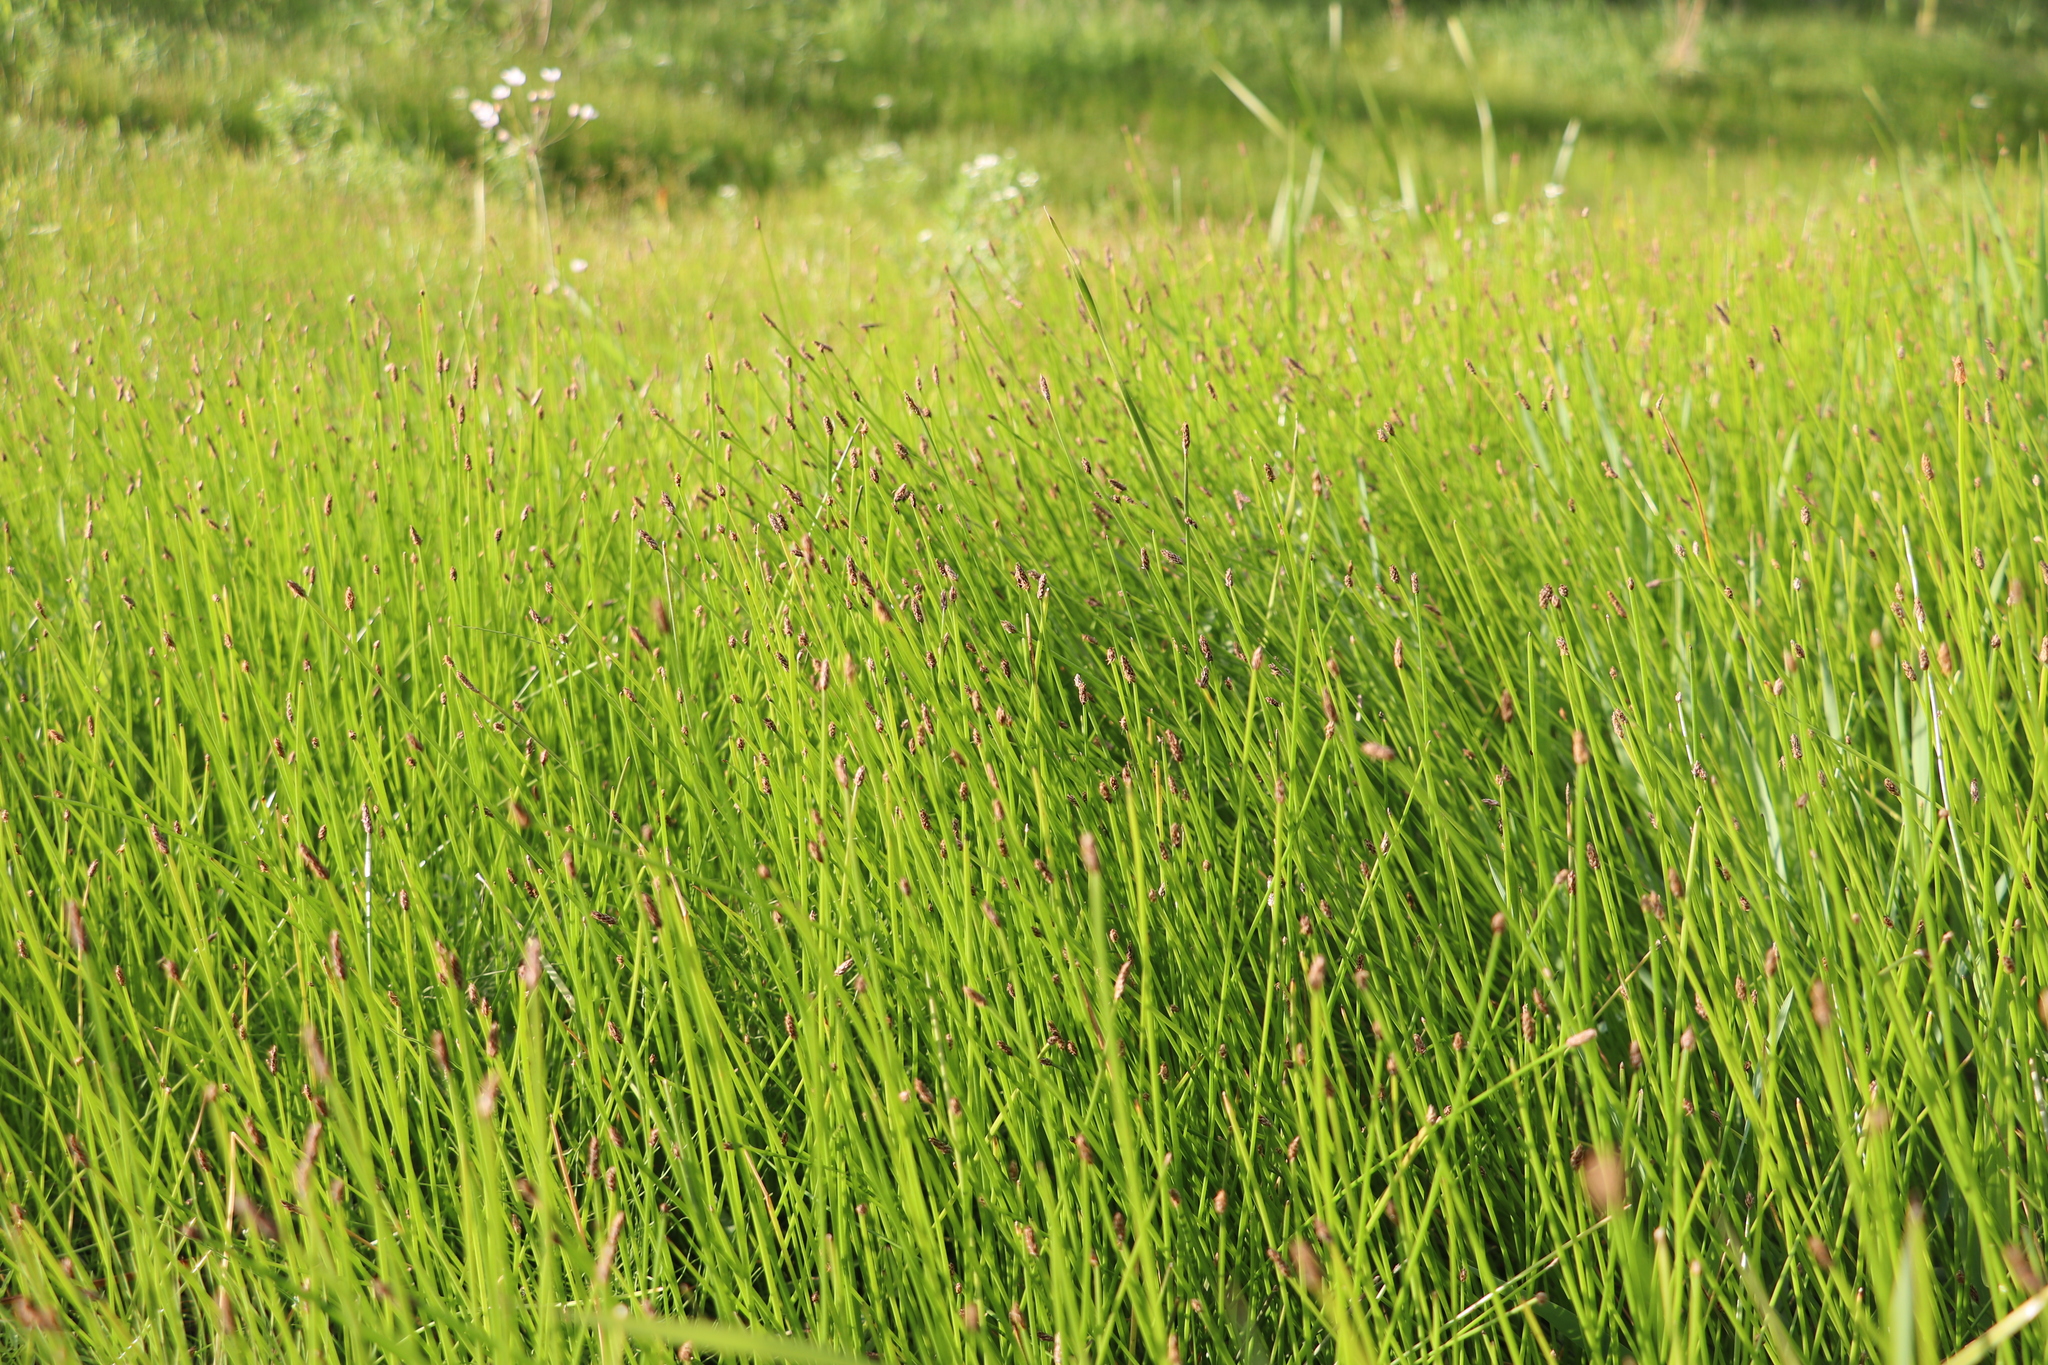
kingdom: Plantae
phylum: Tracheophyta
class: Liliopsida
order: Poales
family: Cyperaceae
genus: Eleocharis
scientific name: Eleocharis palustris
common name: Common spike-rush
